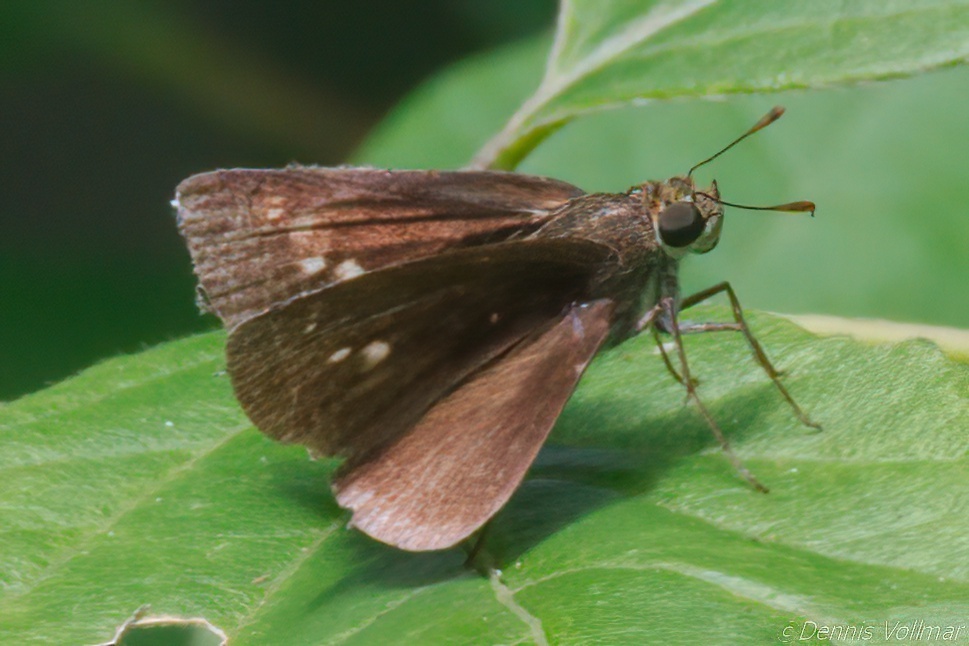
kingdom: Animalia
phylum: Arthropoda
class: Insecta
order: Lepidoptera
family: Hesperiidae
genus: Euphyes
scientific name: Euphyes vestris
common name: Dun skipper
